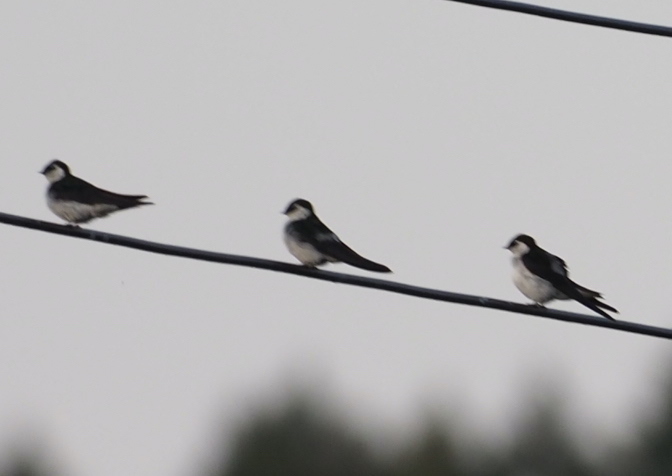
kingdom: Animalia
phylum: Chordata
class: Aves
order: Passeriformes
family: Hirundinidae
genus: Tachycineta
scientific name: Tachycineta thalassina
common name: Violet-green swallow
